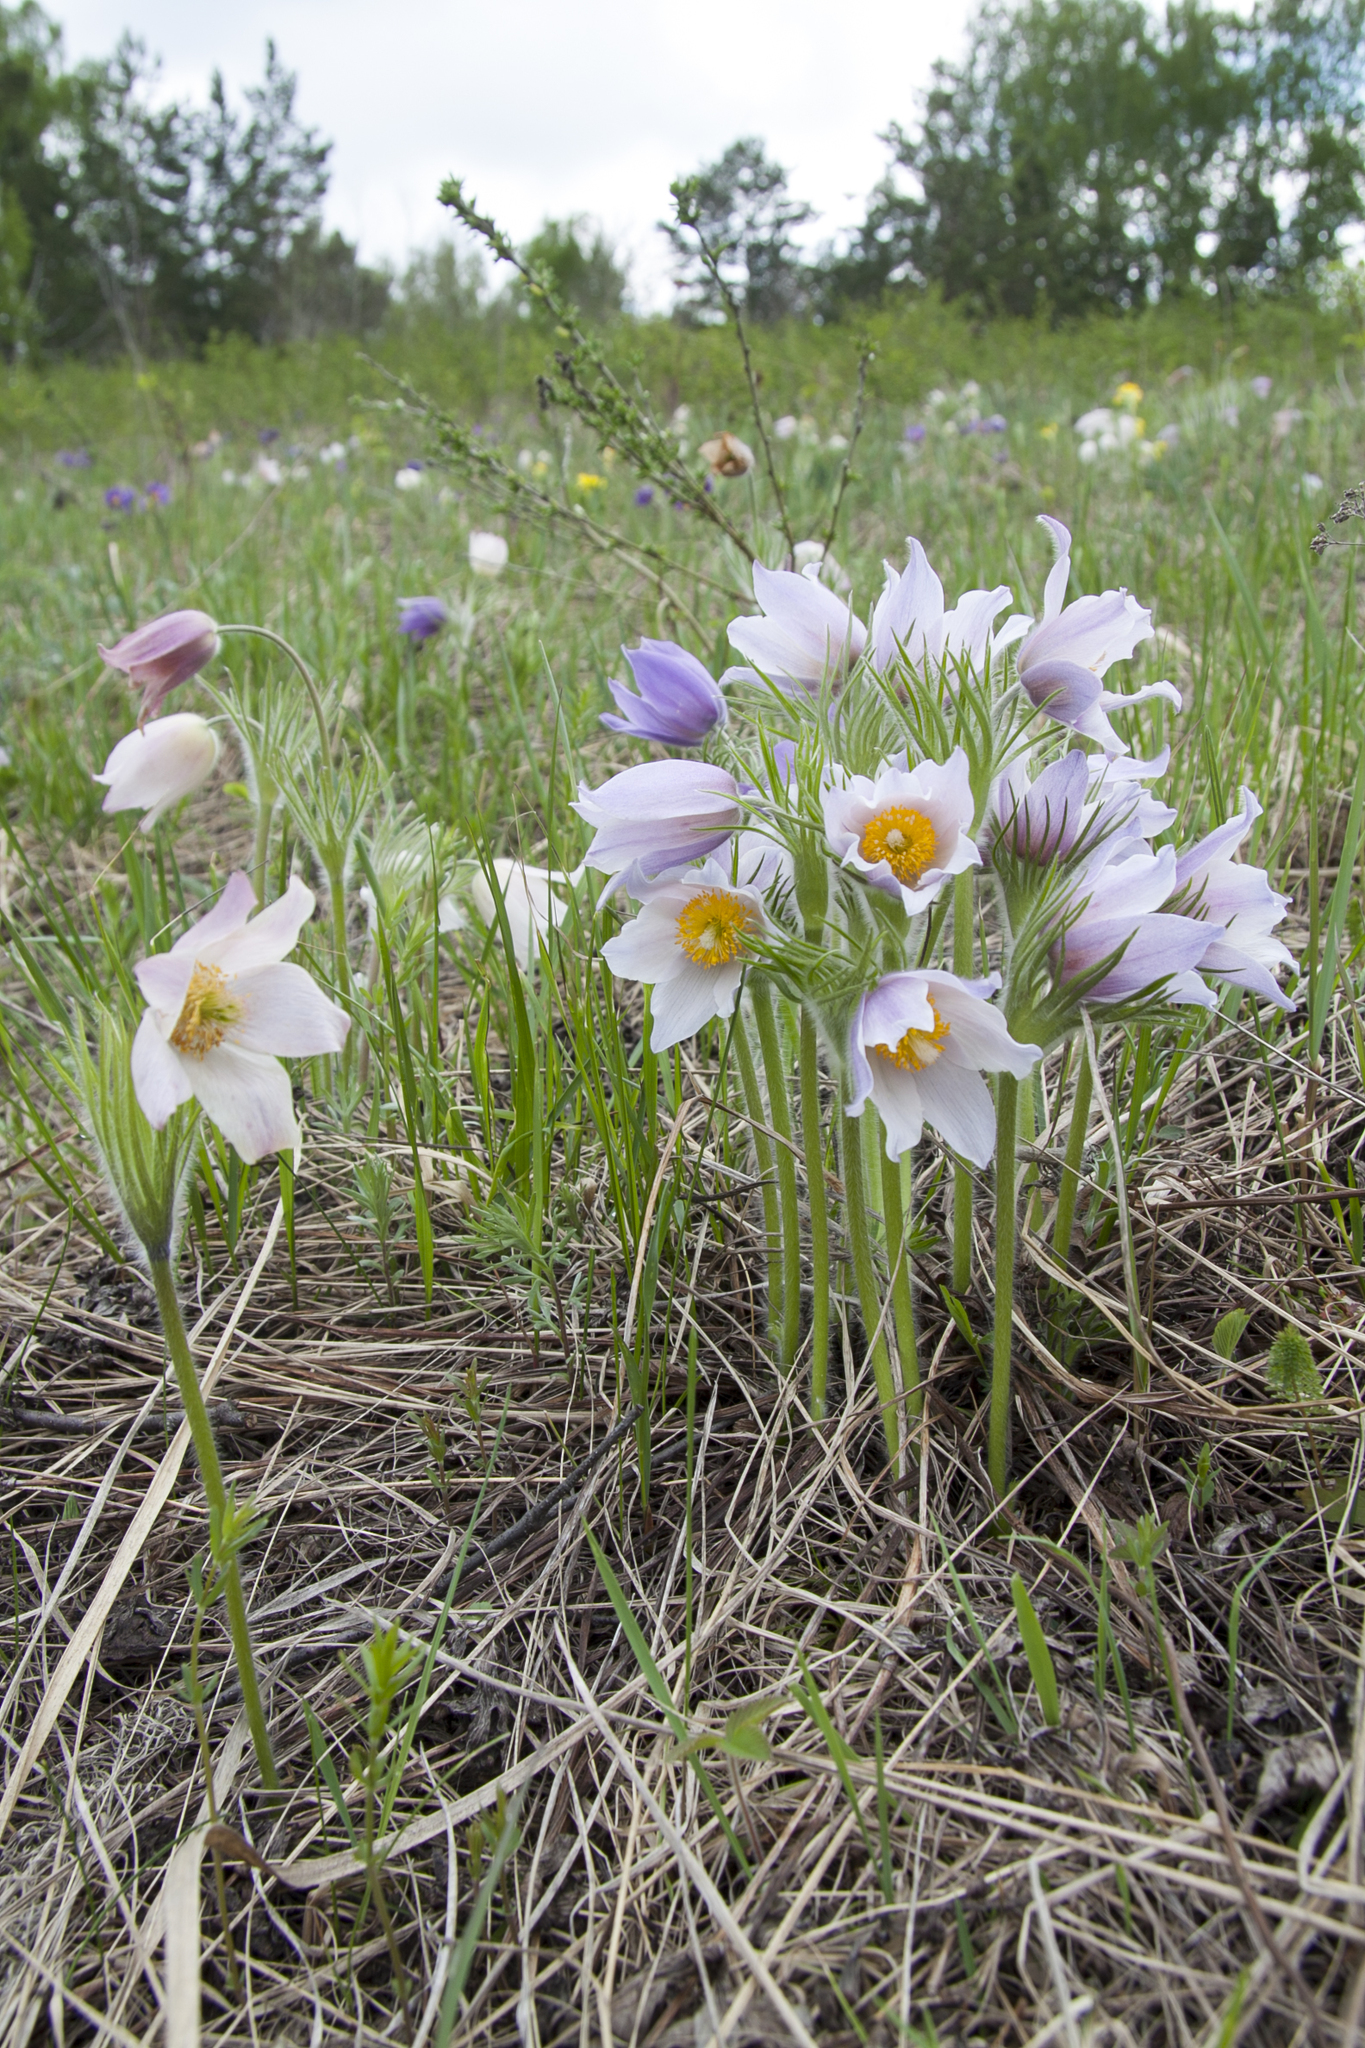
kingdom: Plantae
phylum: Tracheophyta
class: Magnoliopsida
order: Ranunculales
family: Ranunculaceae
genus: Pulsatilla
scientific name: Pulsatilla patens
